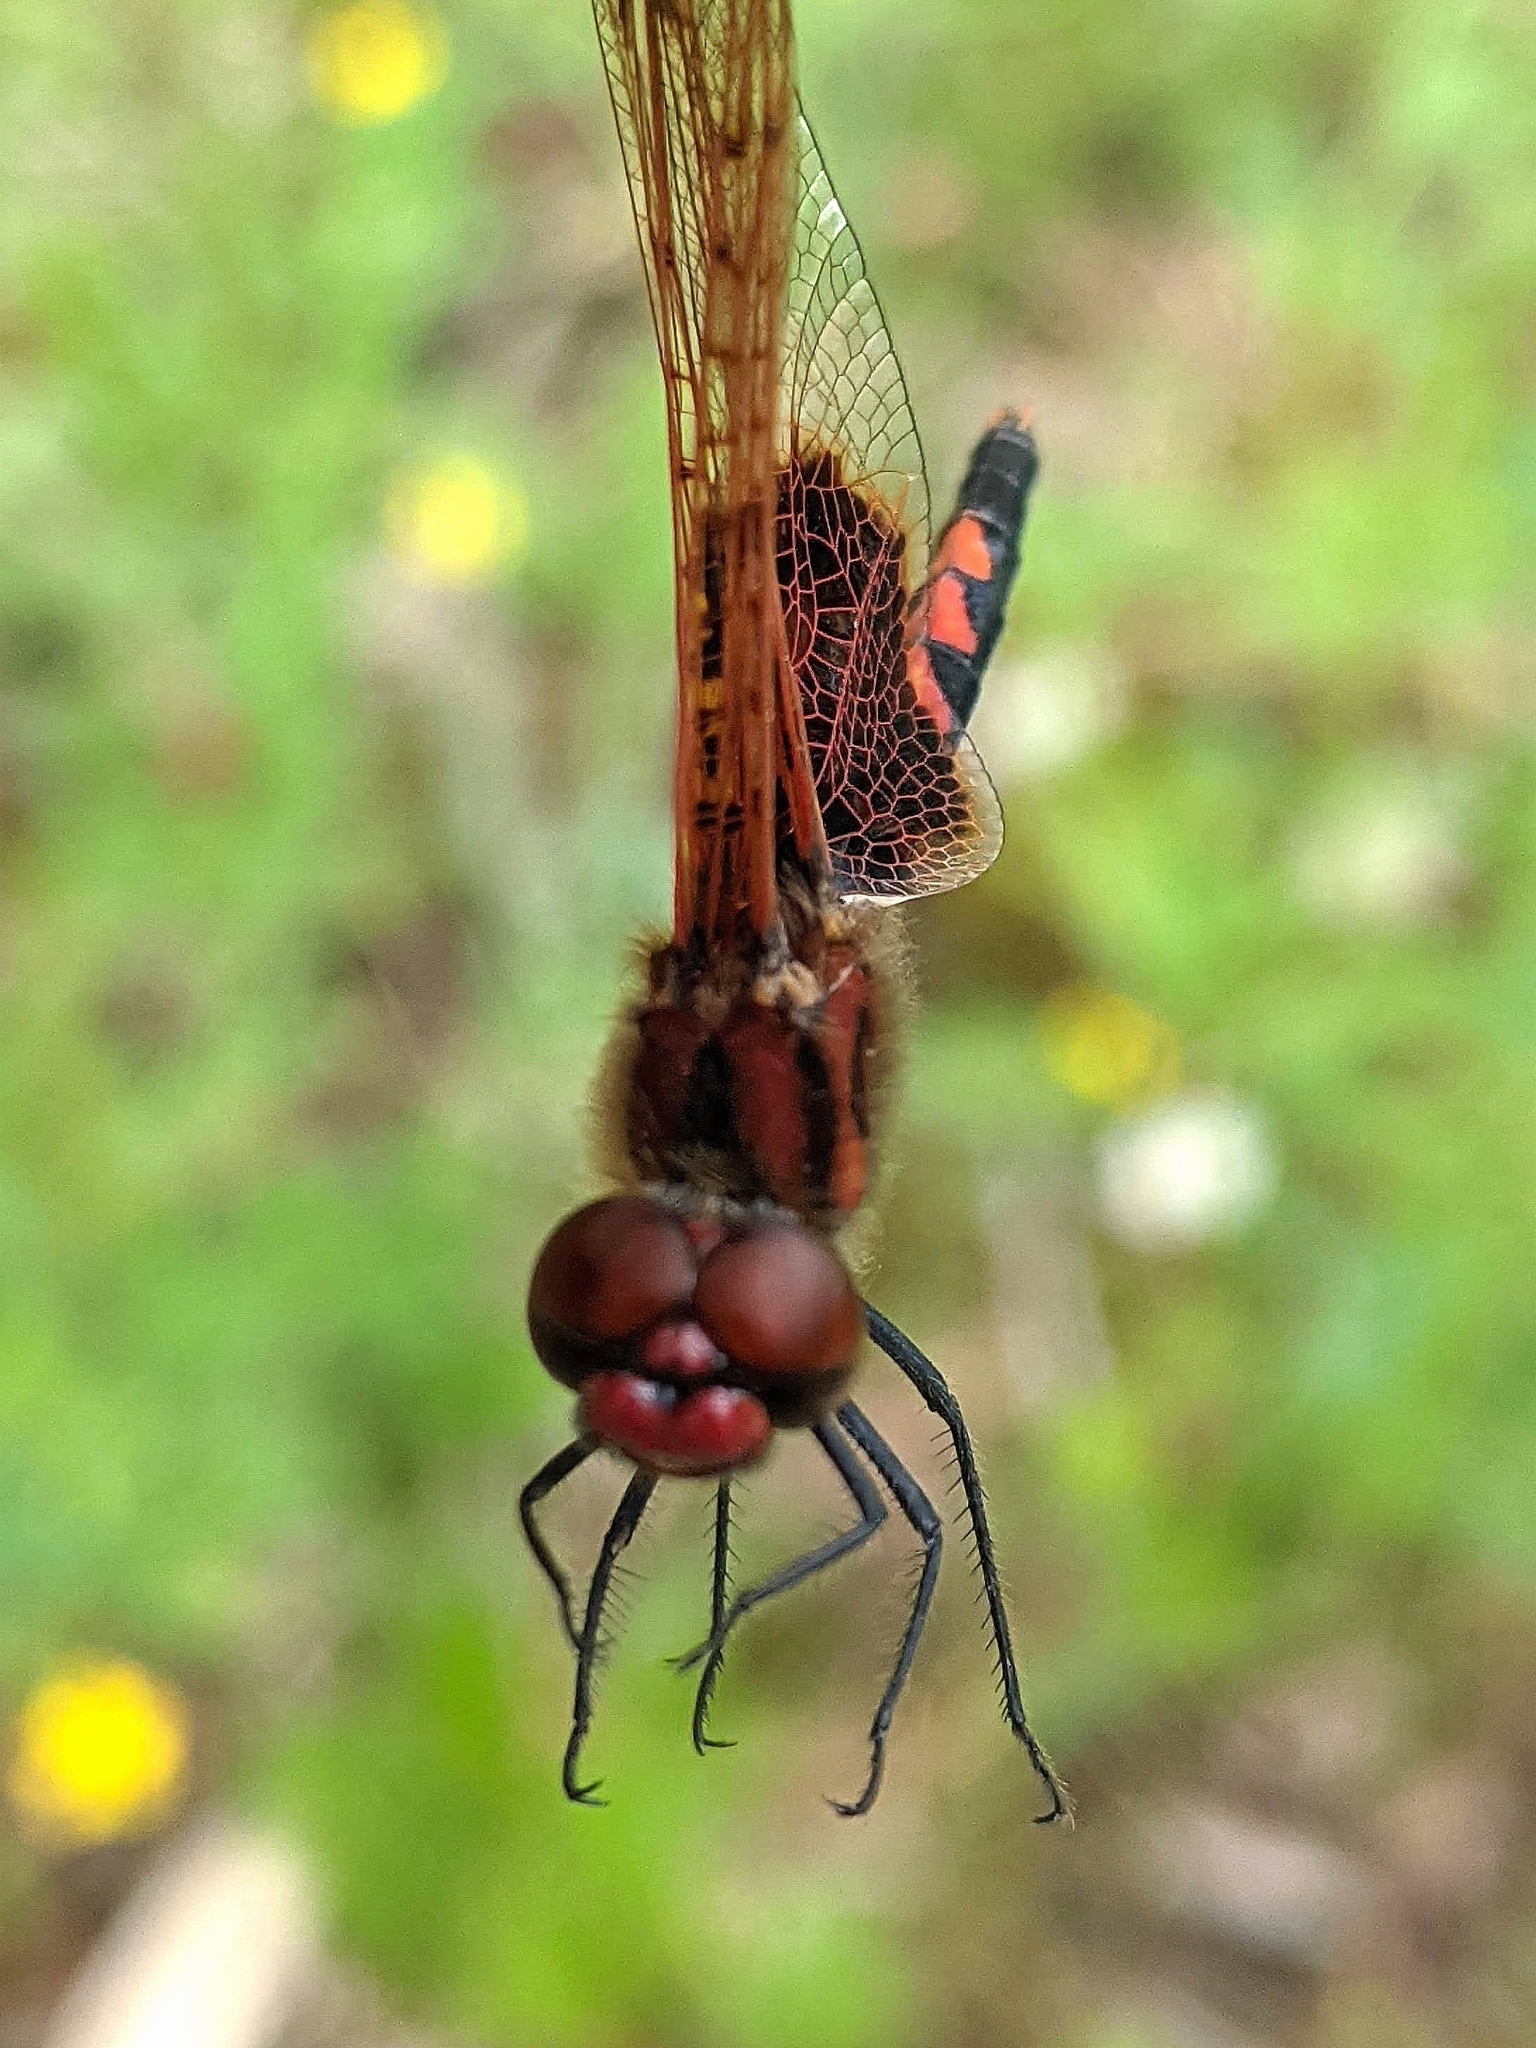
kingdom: Animalia
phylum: Arthropoda
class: Insecta
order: Odonata
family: Libellulidae
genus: Celithemis
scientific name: Celithemis elisa
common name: Calico pennant
